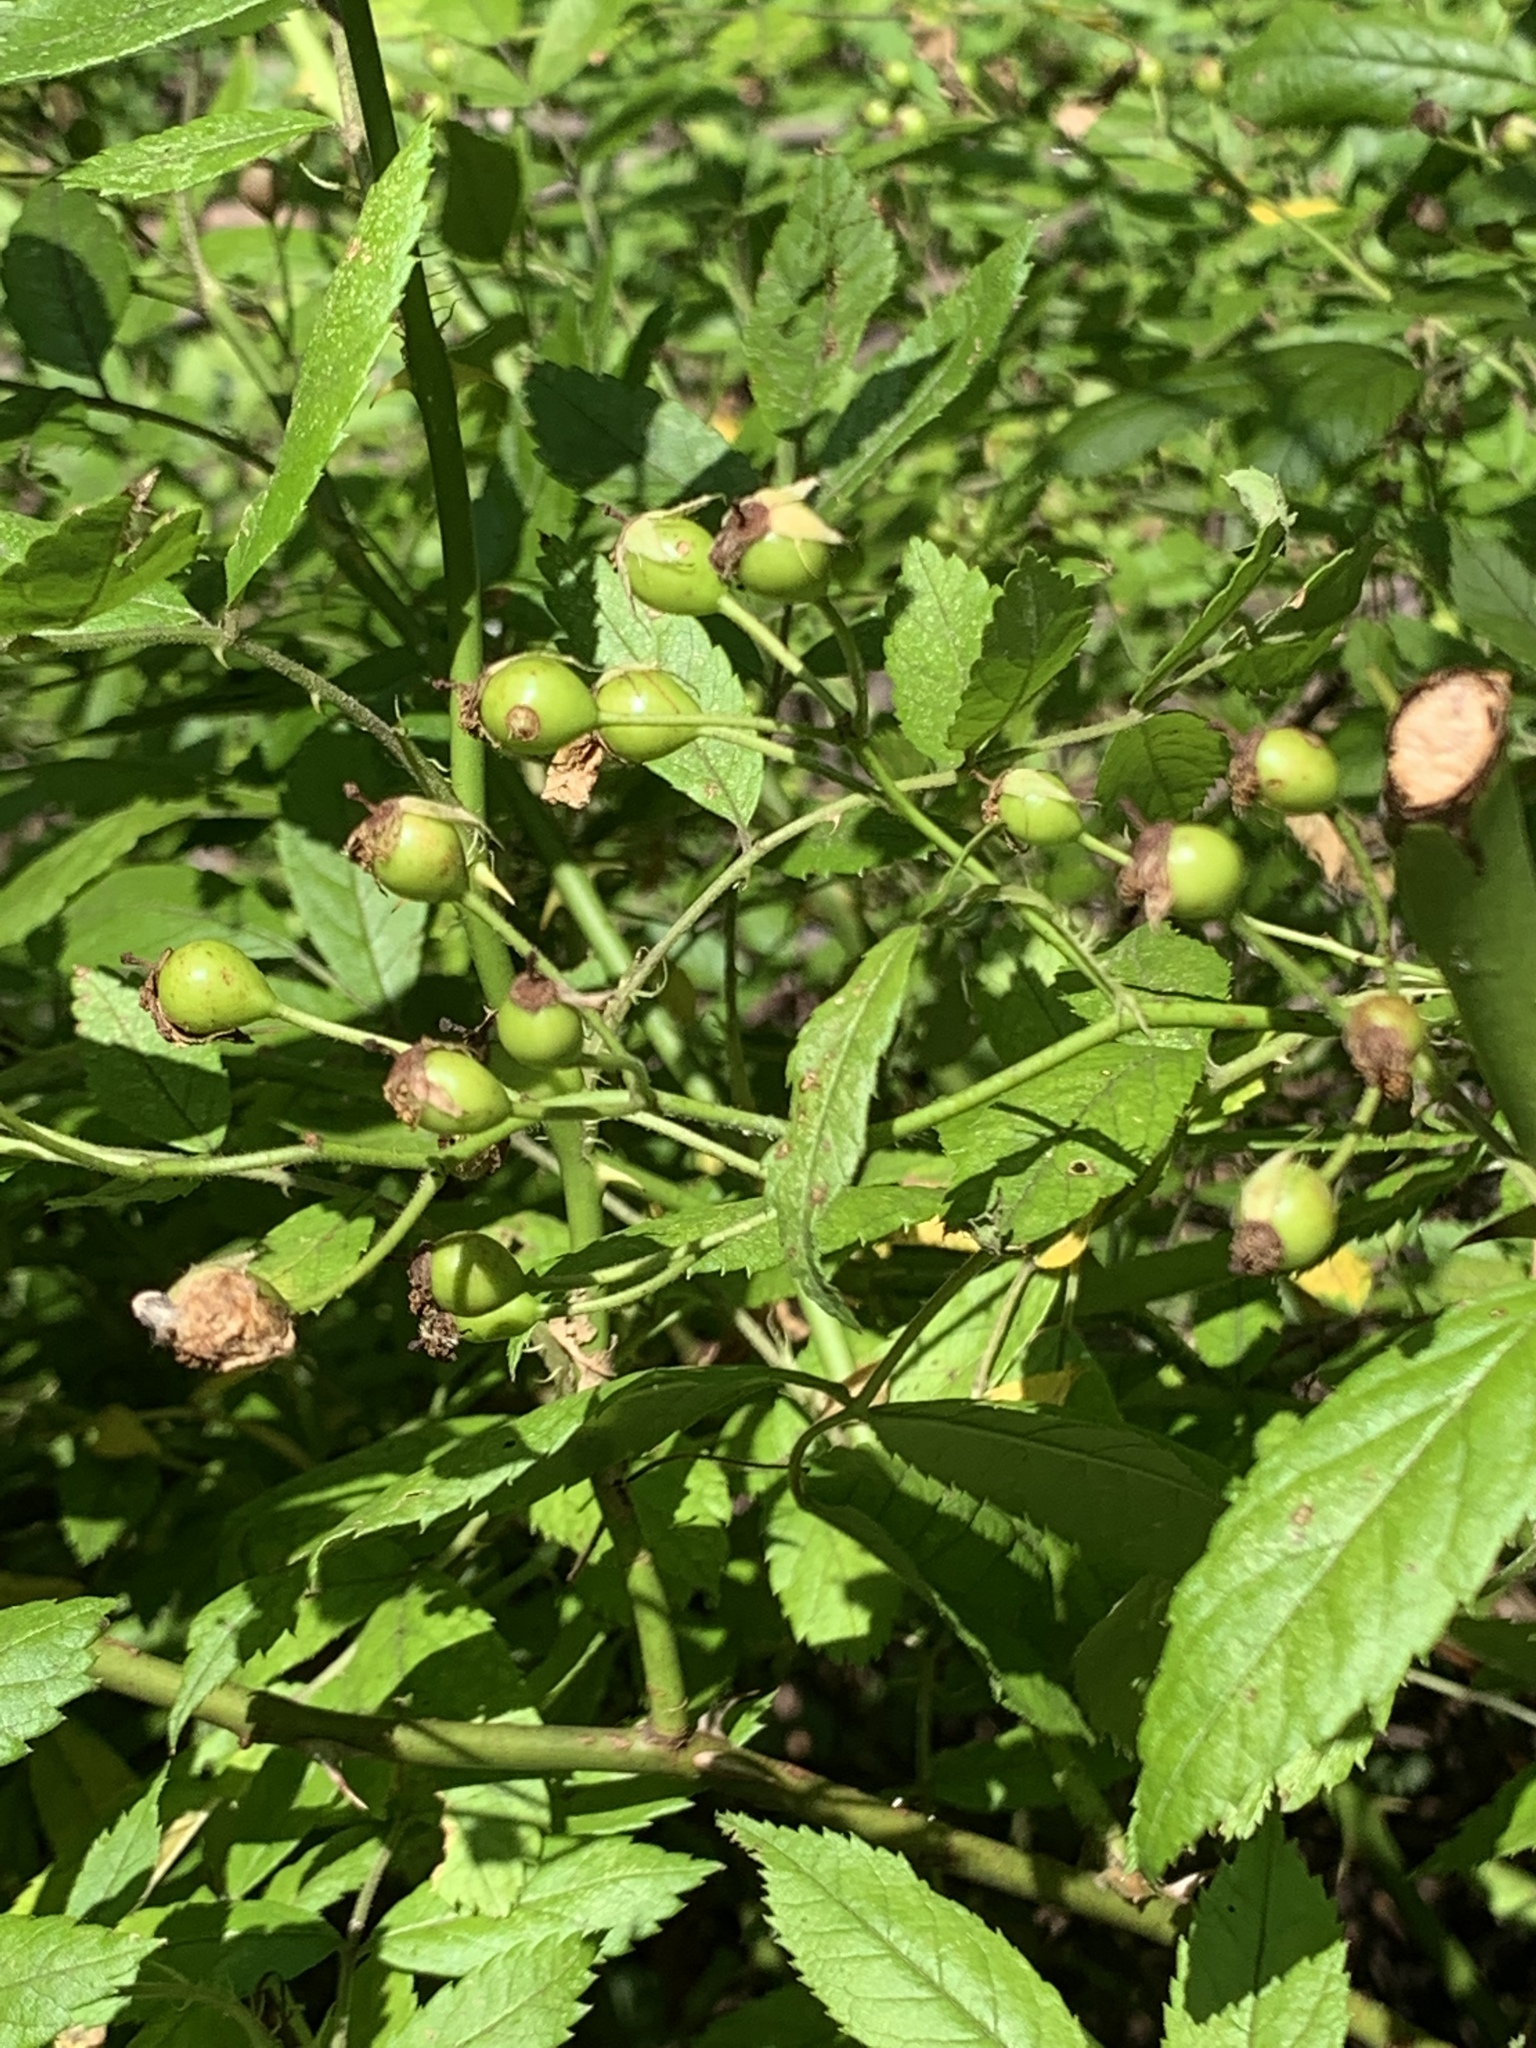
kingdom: Plantae
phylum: Tracheophyta
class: Magnoliopsida
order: Rosales
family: Rosaceae
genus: Rosa
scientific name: Rosa multiflora
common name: Multiflora rose
